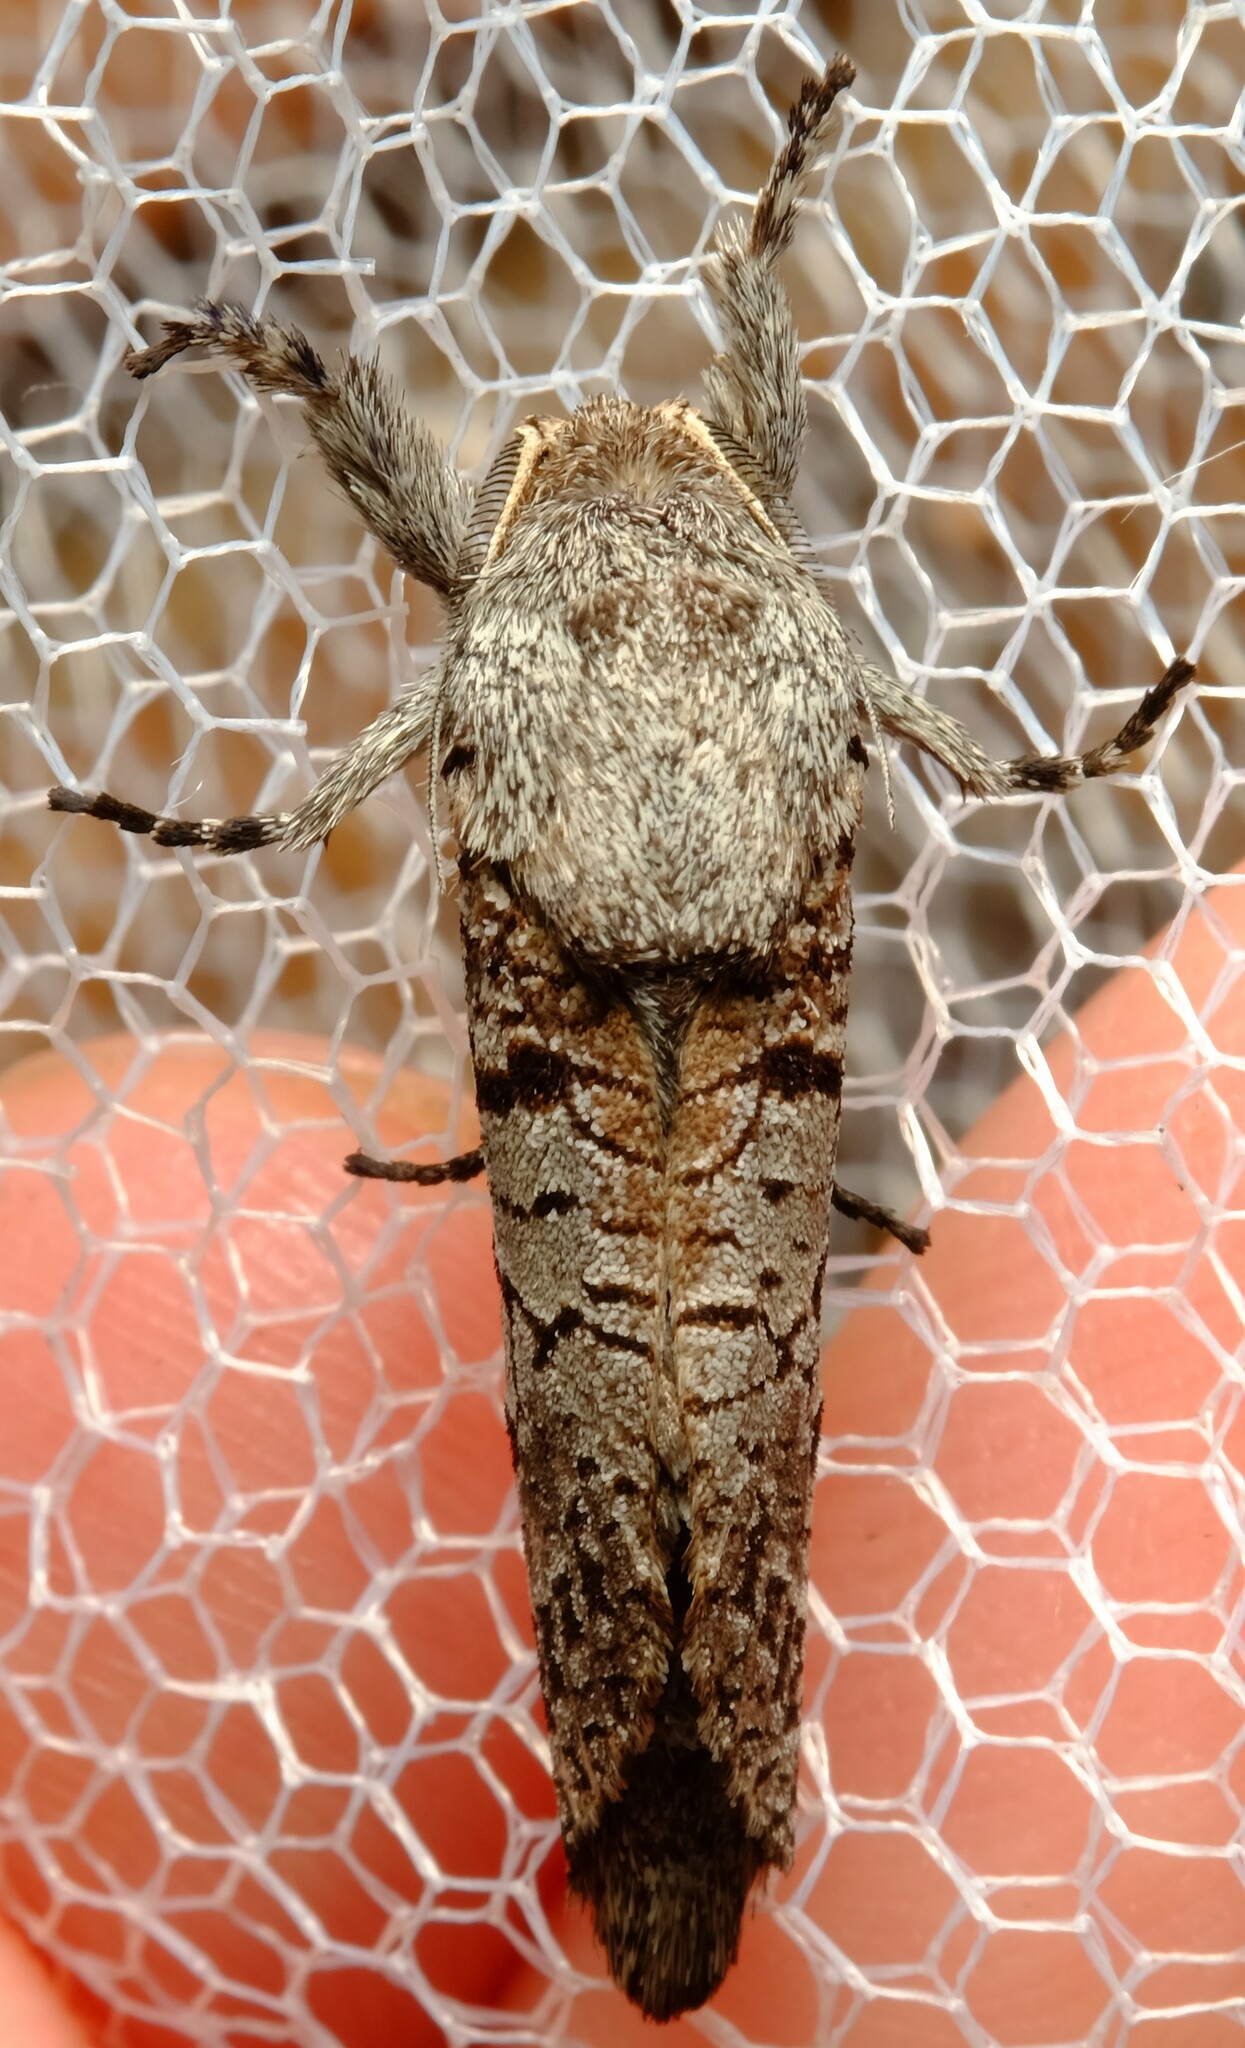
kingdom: Animalia
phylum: Arthropoda
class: Insecta
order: Lepidoptera
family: Cossidae
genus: Sympycnodes
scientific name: Sympycnodes
